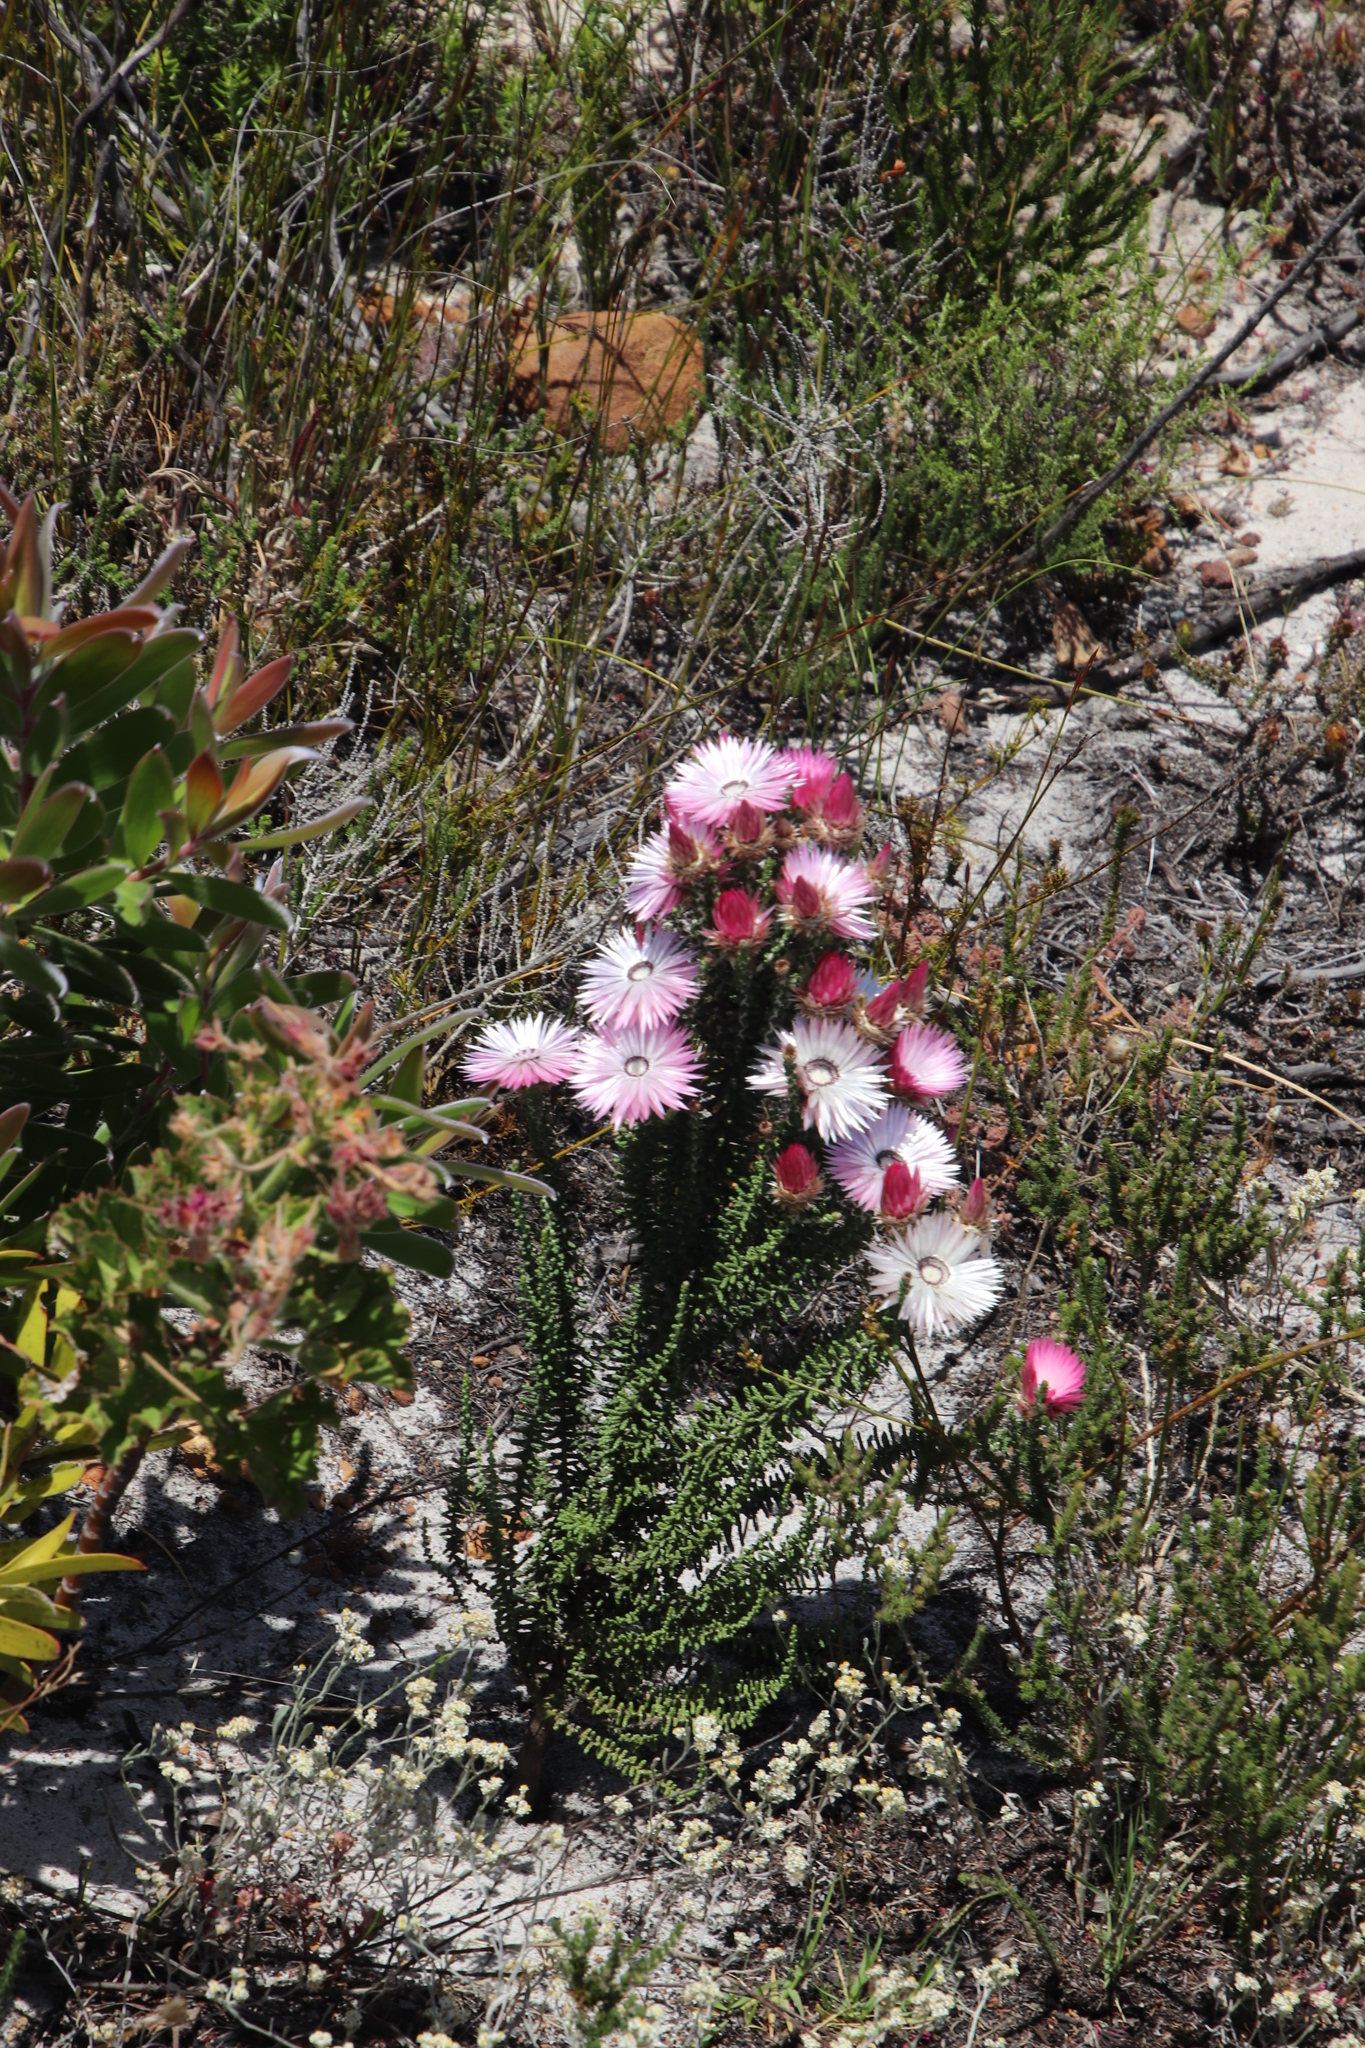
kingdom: Plantae
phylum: Tracheophyta
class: Magnoliopsida
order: Asterales
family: Asteraceae
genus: Phaenocoma
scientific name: Phaenocoma prolifera
